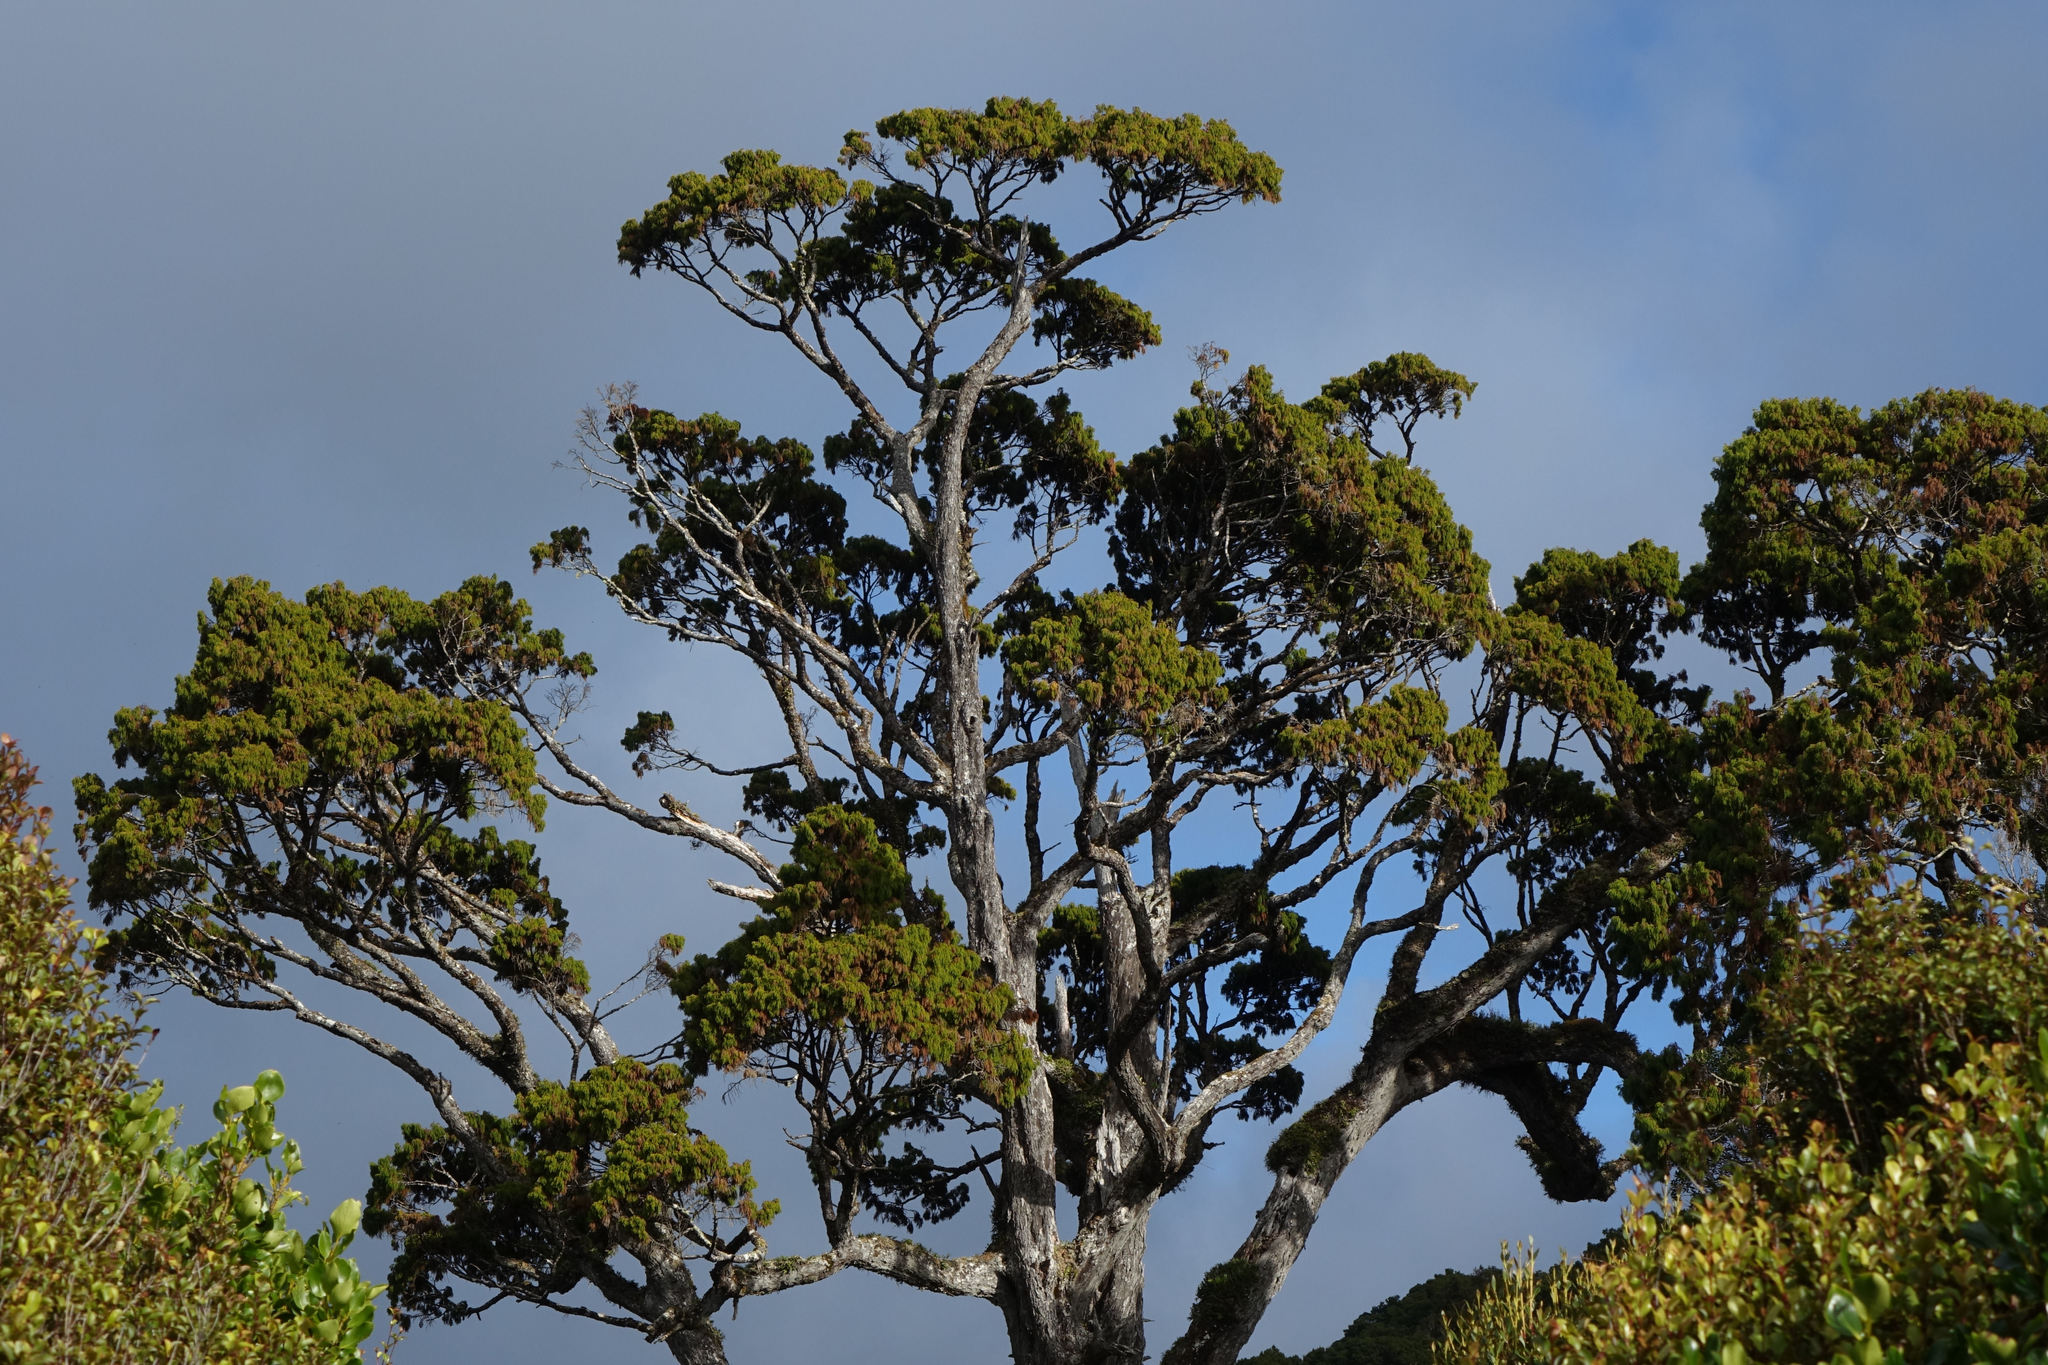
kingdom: Plantae
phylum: Tracheophyta
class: Pinopsida
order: Pinales
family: Podocarpaceae
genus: Dacrydium
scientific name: Dacrydium cupressinum
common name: Red pine
